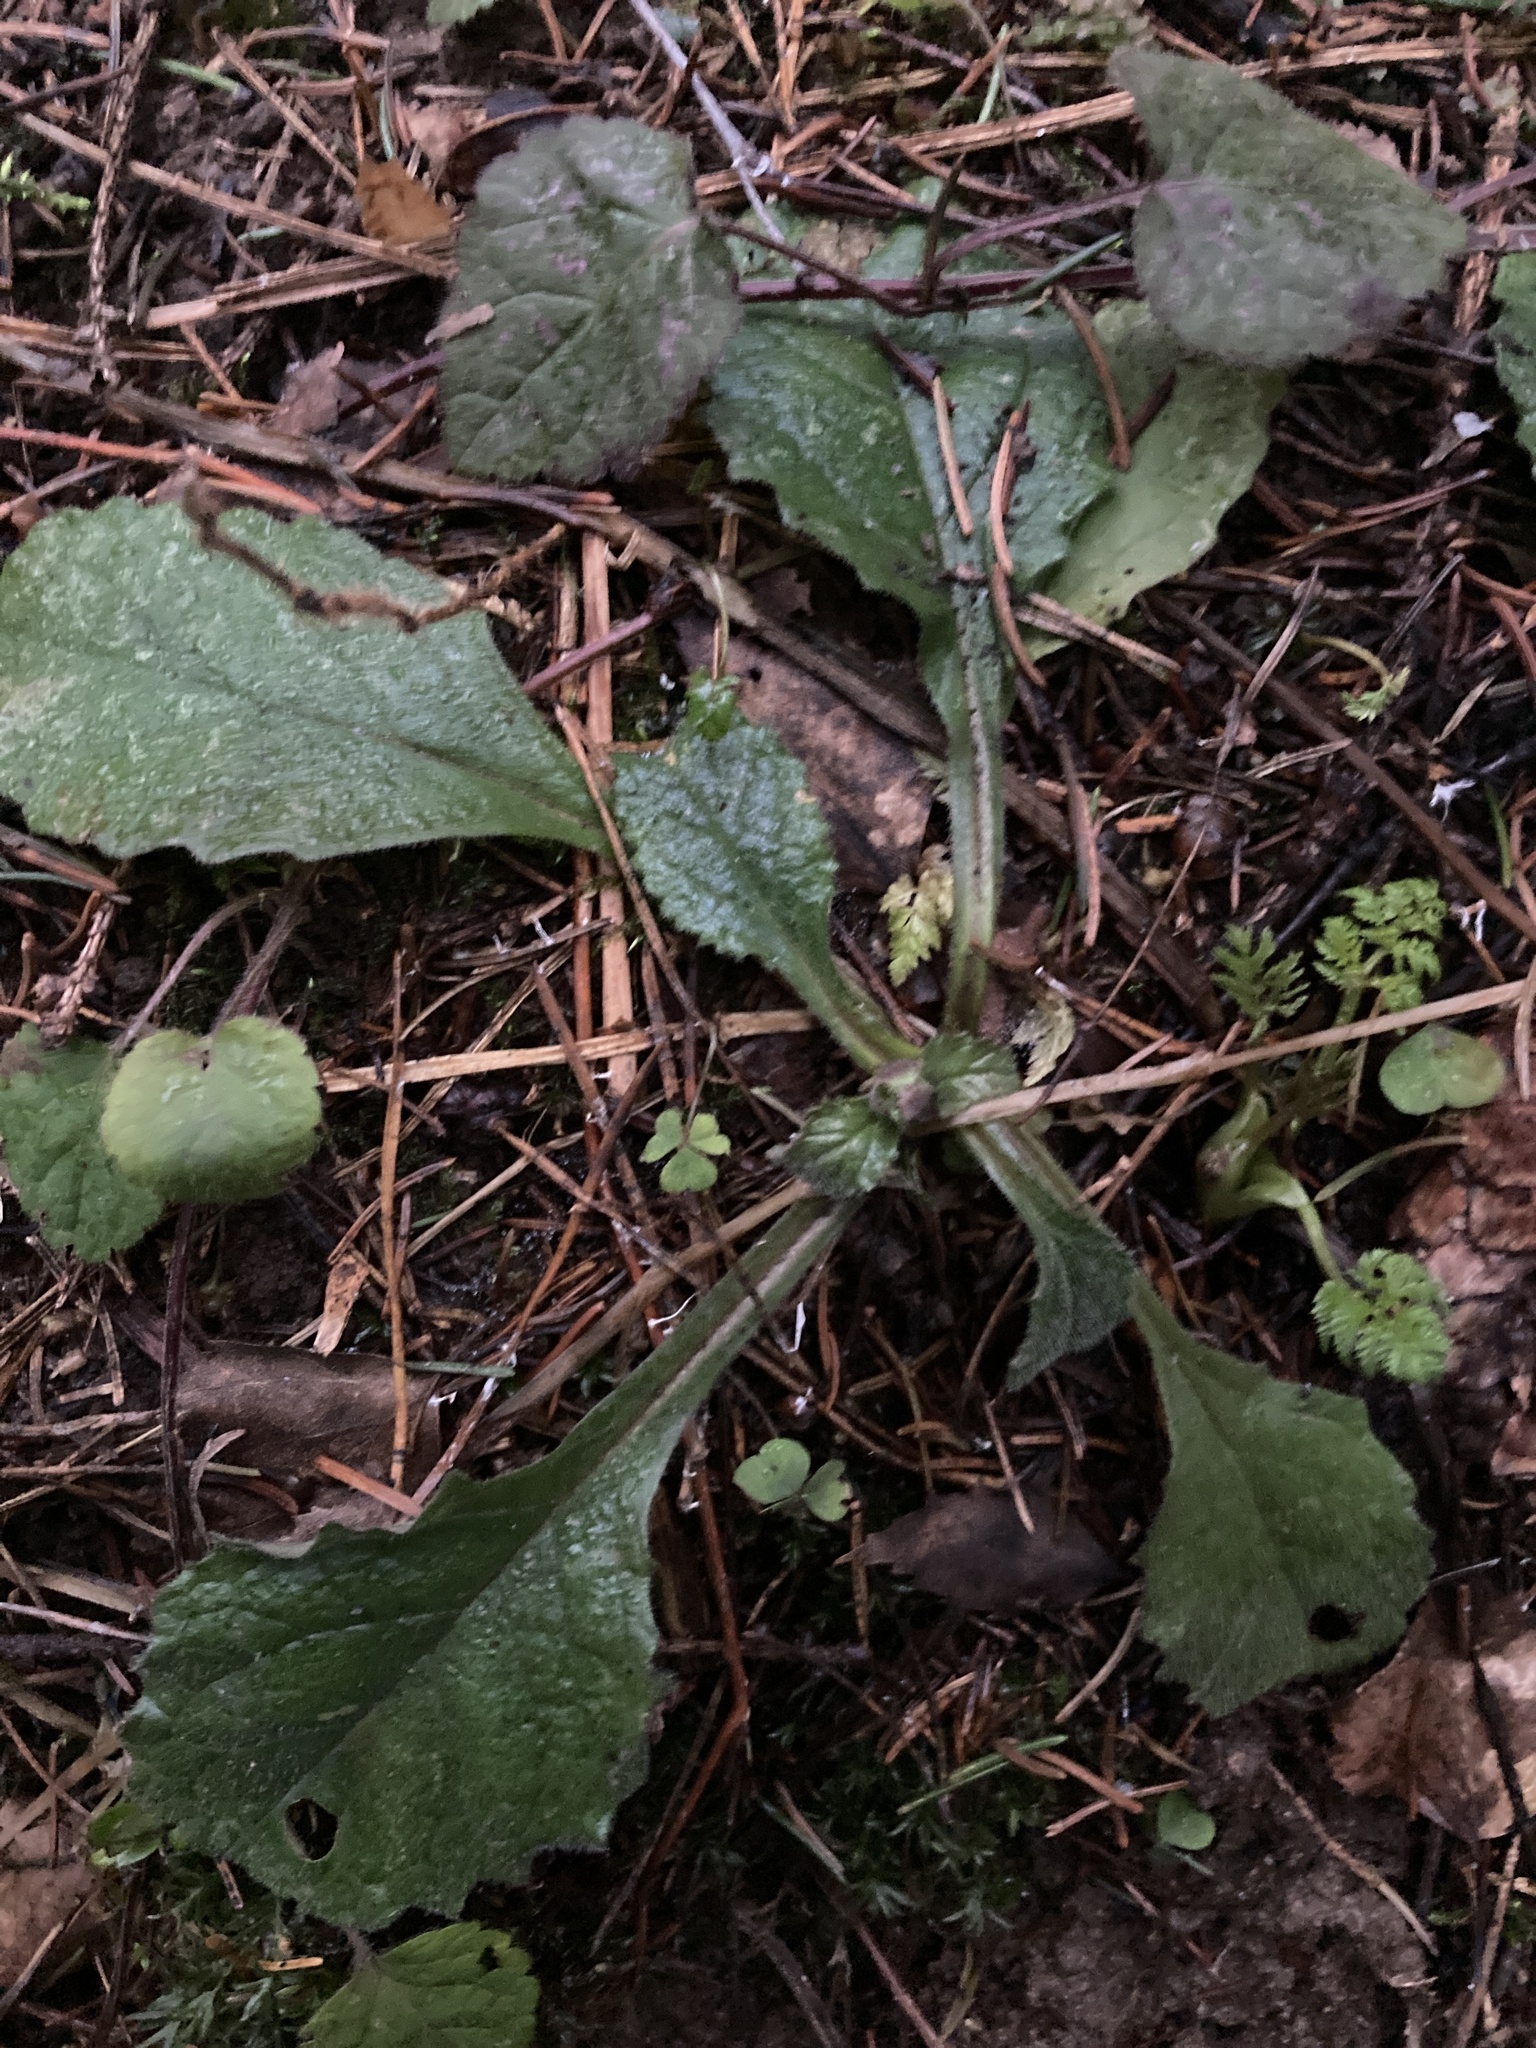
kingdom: Plantae
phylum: Tracheophyta
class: Magnoliopsida
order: Lamiales
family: Lamiaceae
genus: Ajuga
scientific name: Ajuga reptans
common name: Bugle
